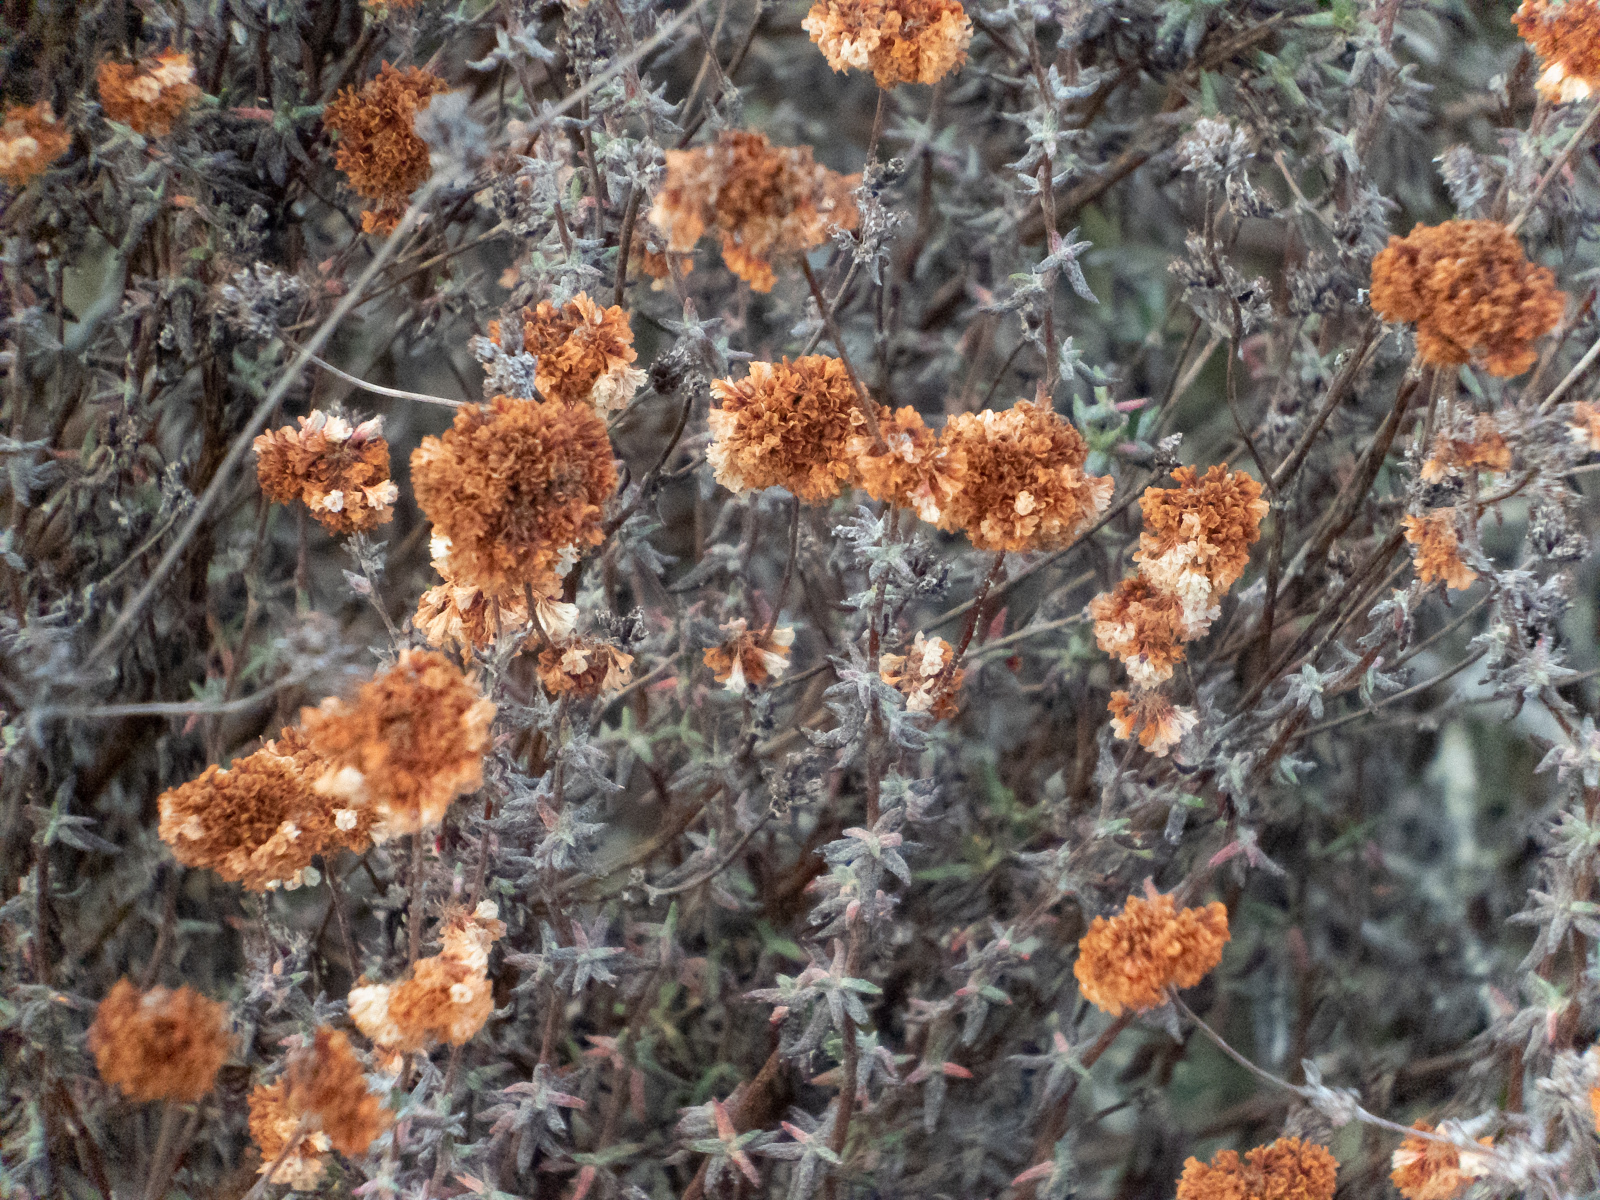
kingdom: Plantae
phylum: Tracheophyta
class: Magnoliopsida
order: Caryophyllales
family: Polygonaceae
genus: Eriogonum
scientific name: Eriogonum parvifolium
